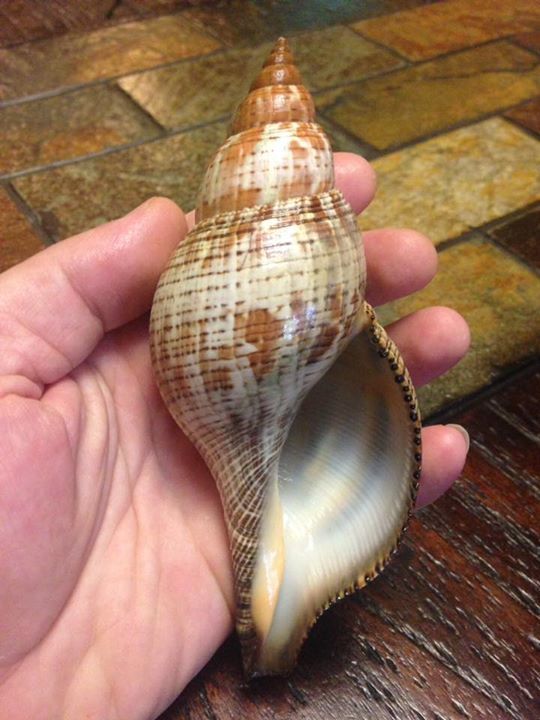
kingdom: Animalia
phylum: Mollusca
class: Gastropoda
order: Neogastropoda
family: Fasciolariidae
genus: Fasciolaria
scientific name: Fasciolaria tulipa
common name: True tulip
